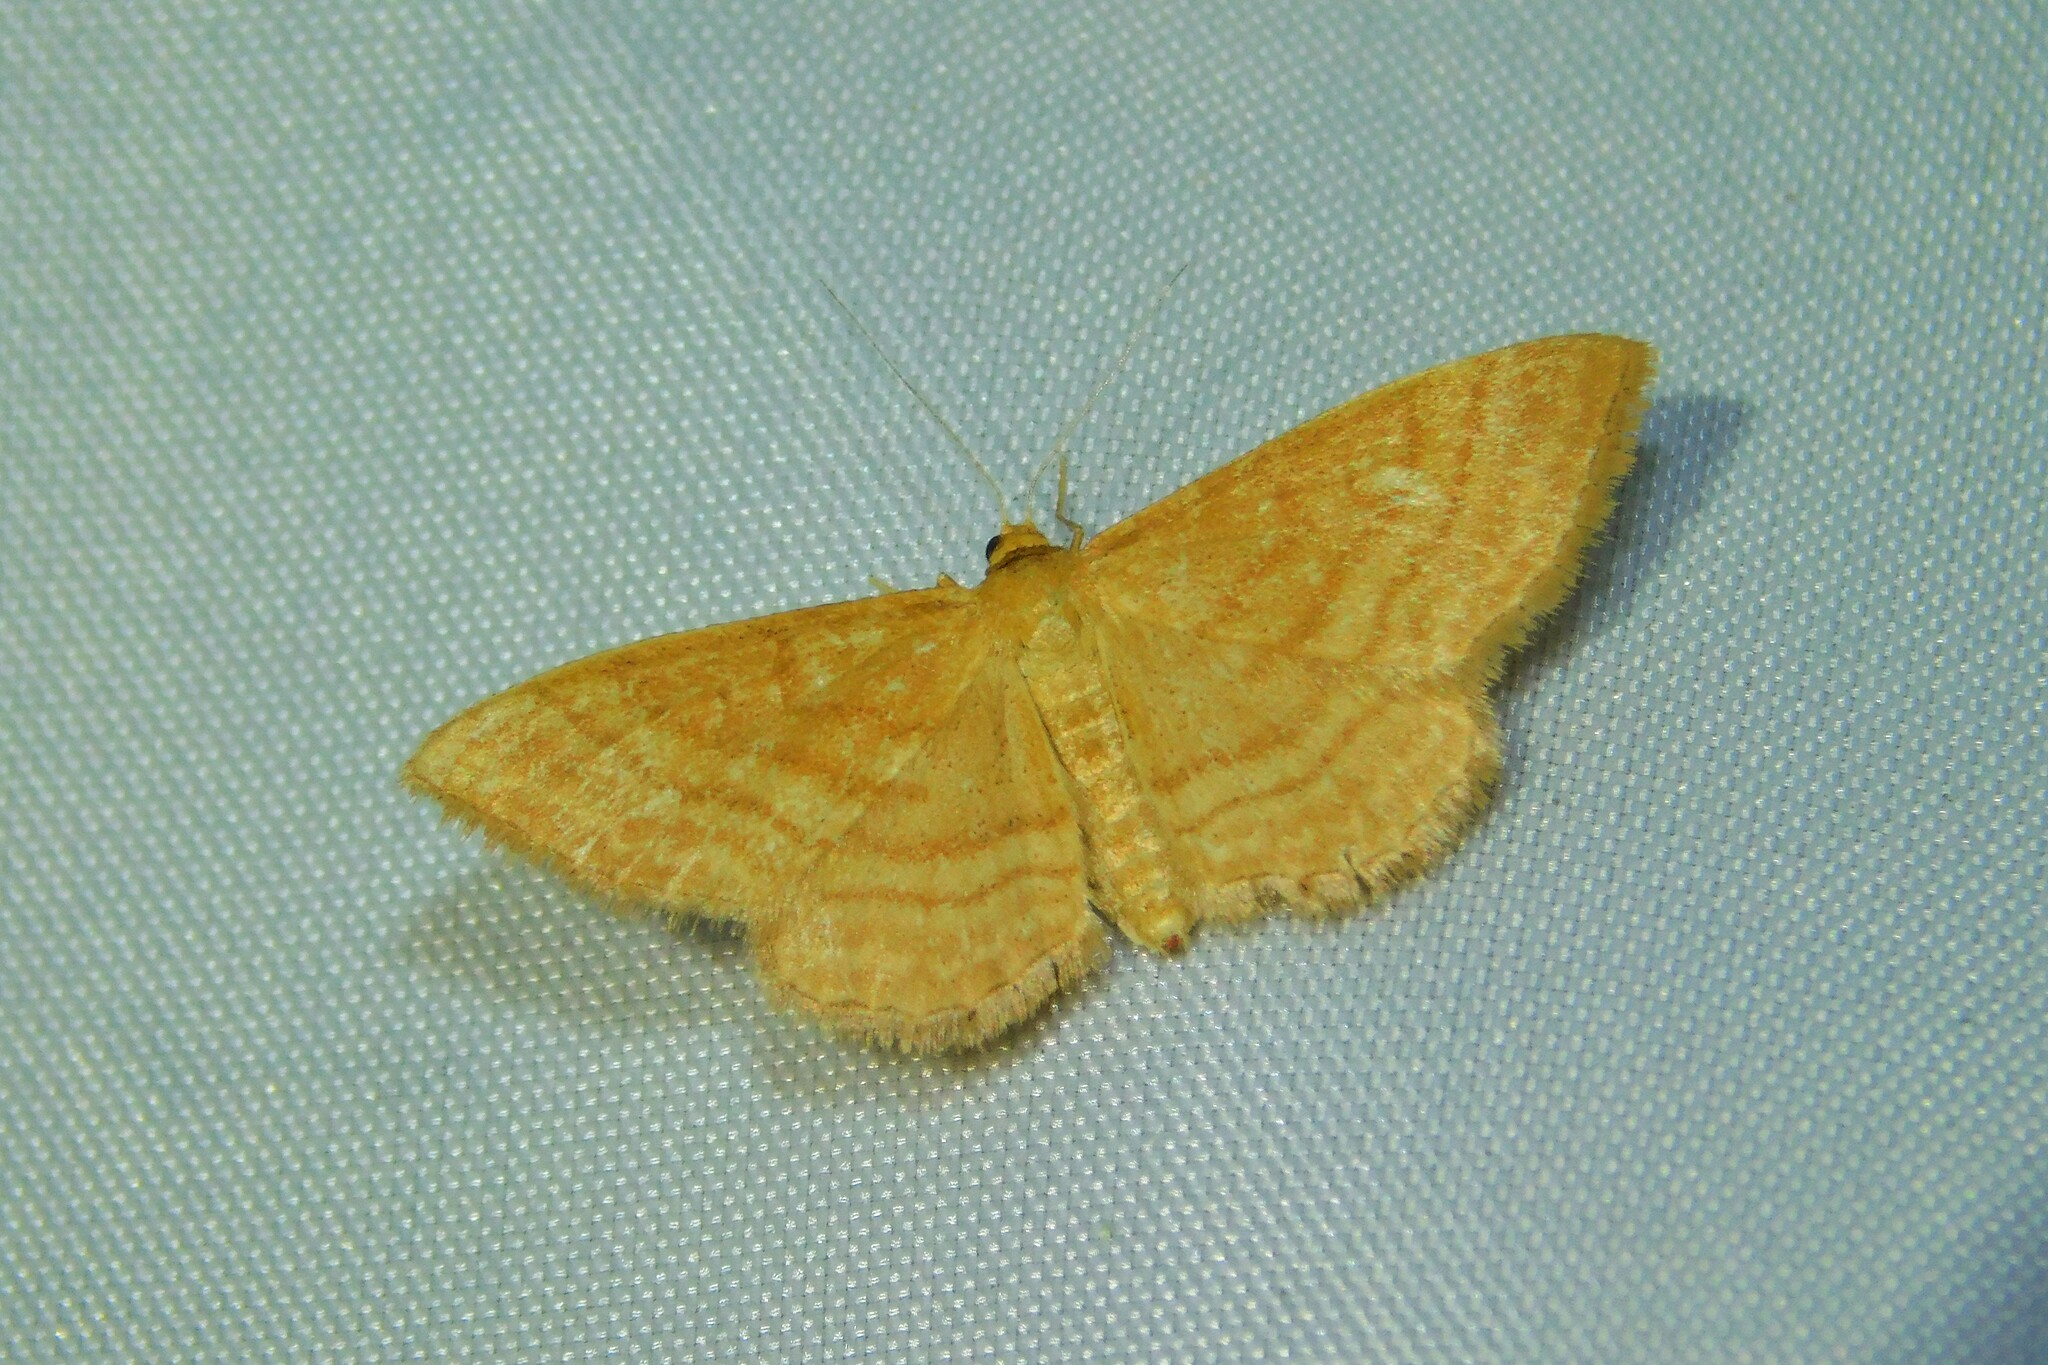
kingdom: Animalia
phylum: Arthropoda
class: Insecta
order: Lepidoptera
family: Geometridae
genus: Idaea
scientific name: Idaea ochrata
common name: Bright wave
